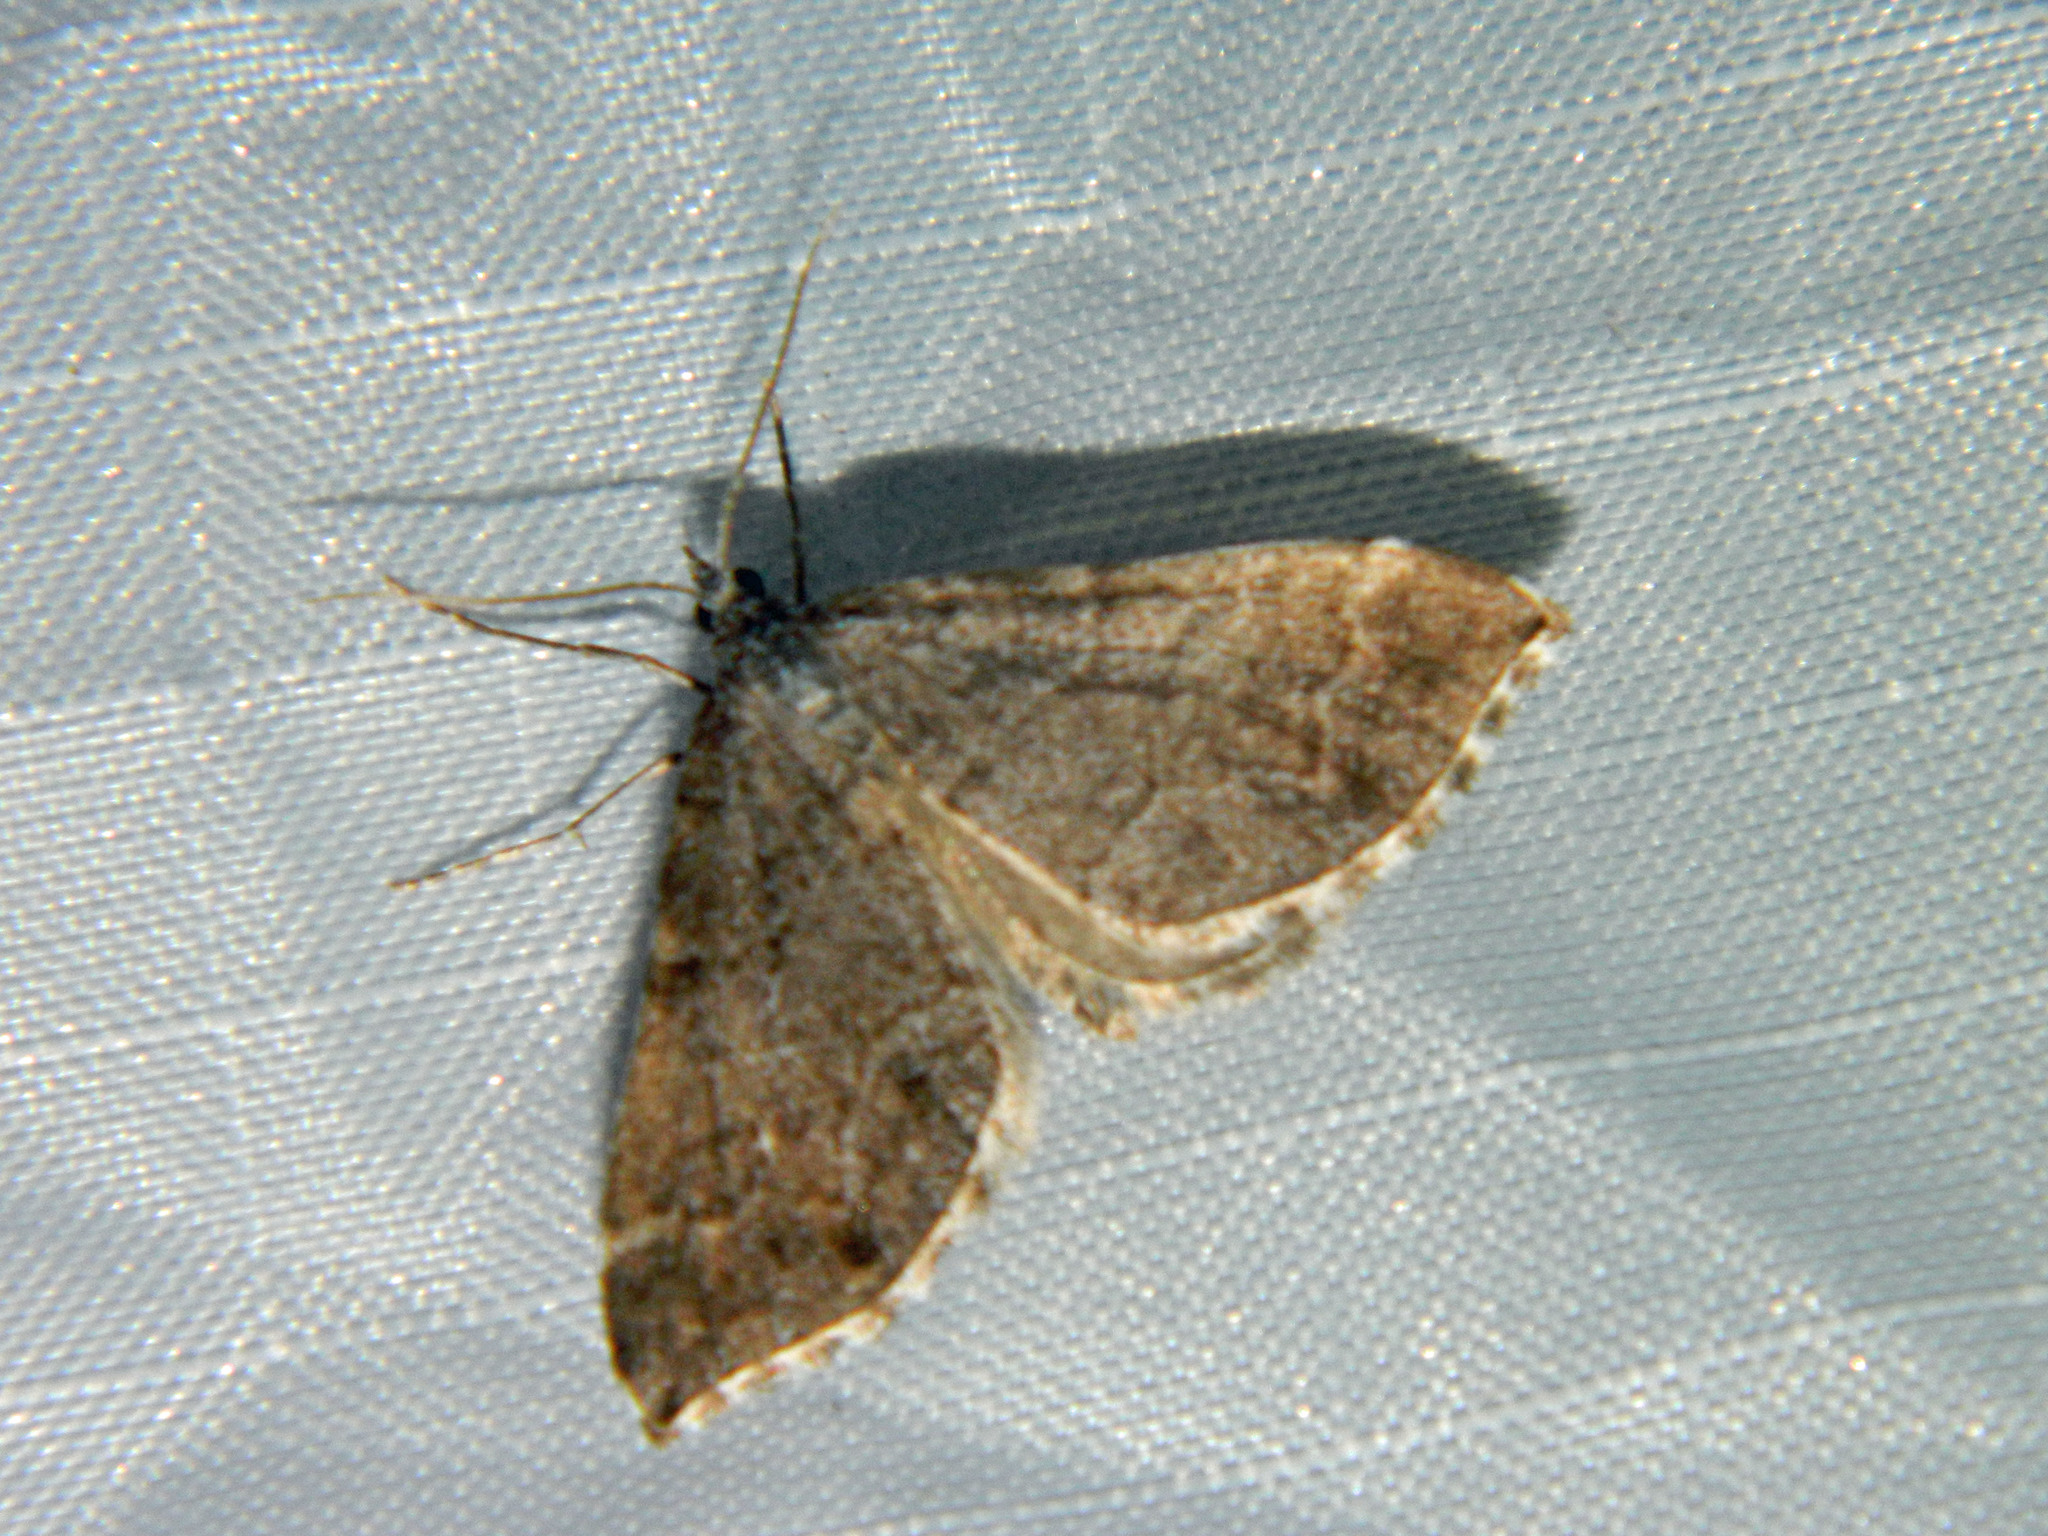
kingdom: Animalia
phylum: Arthropoda
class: Insecta
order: Lepidoptera
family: Geometridae
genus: Carsia
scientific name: Carsia sororiata
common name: Manchester treble-bar
